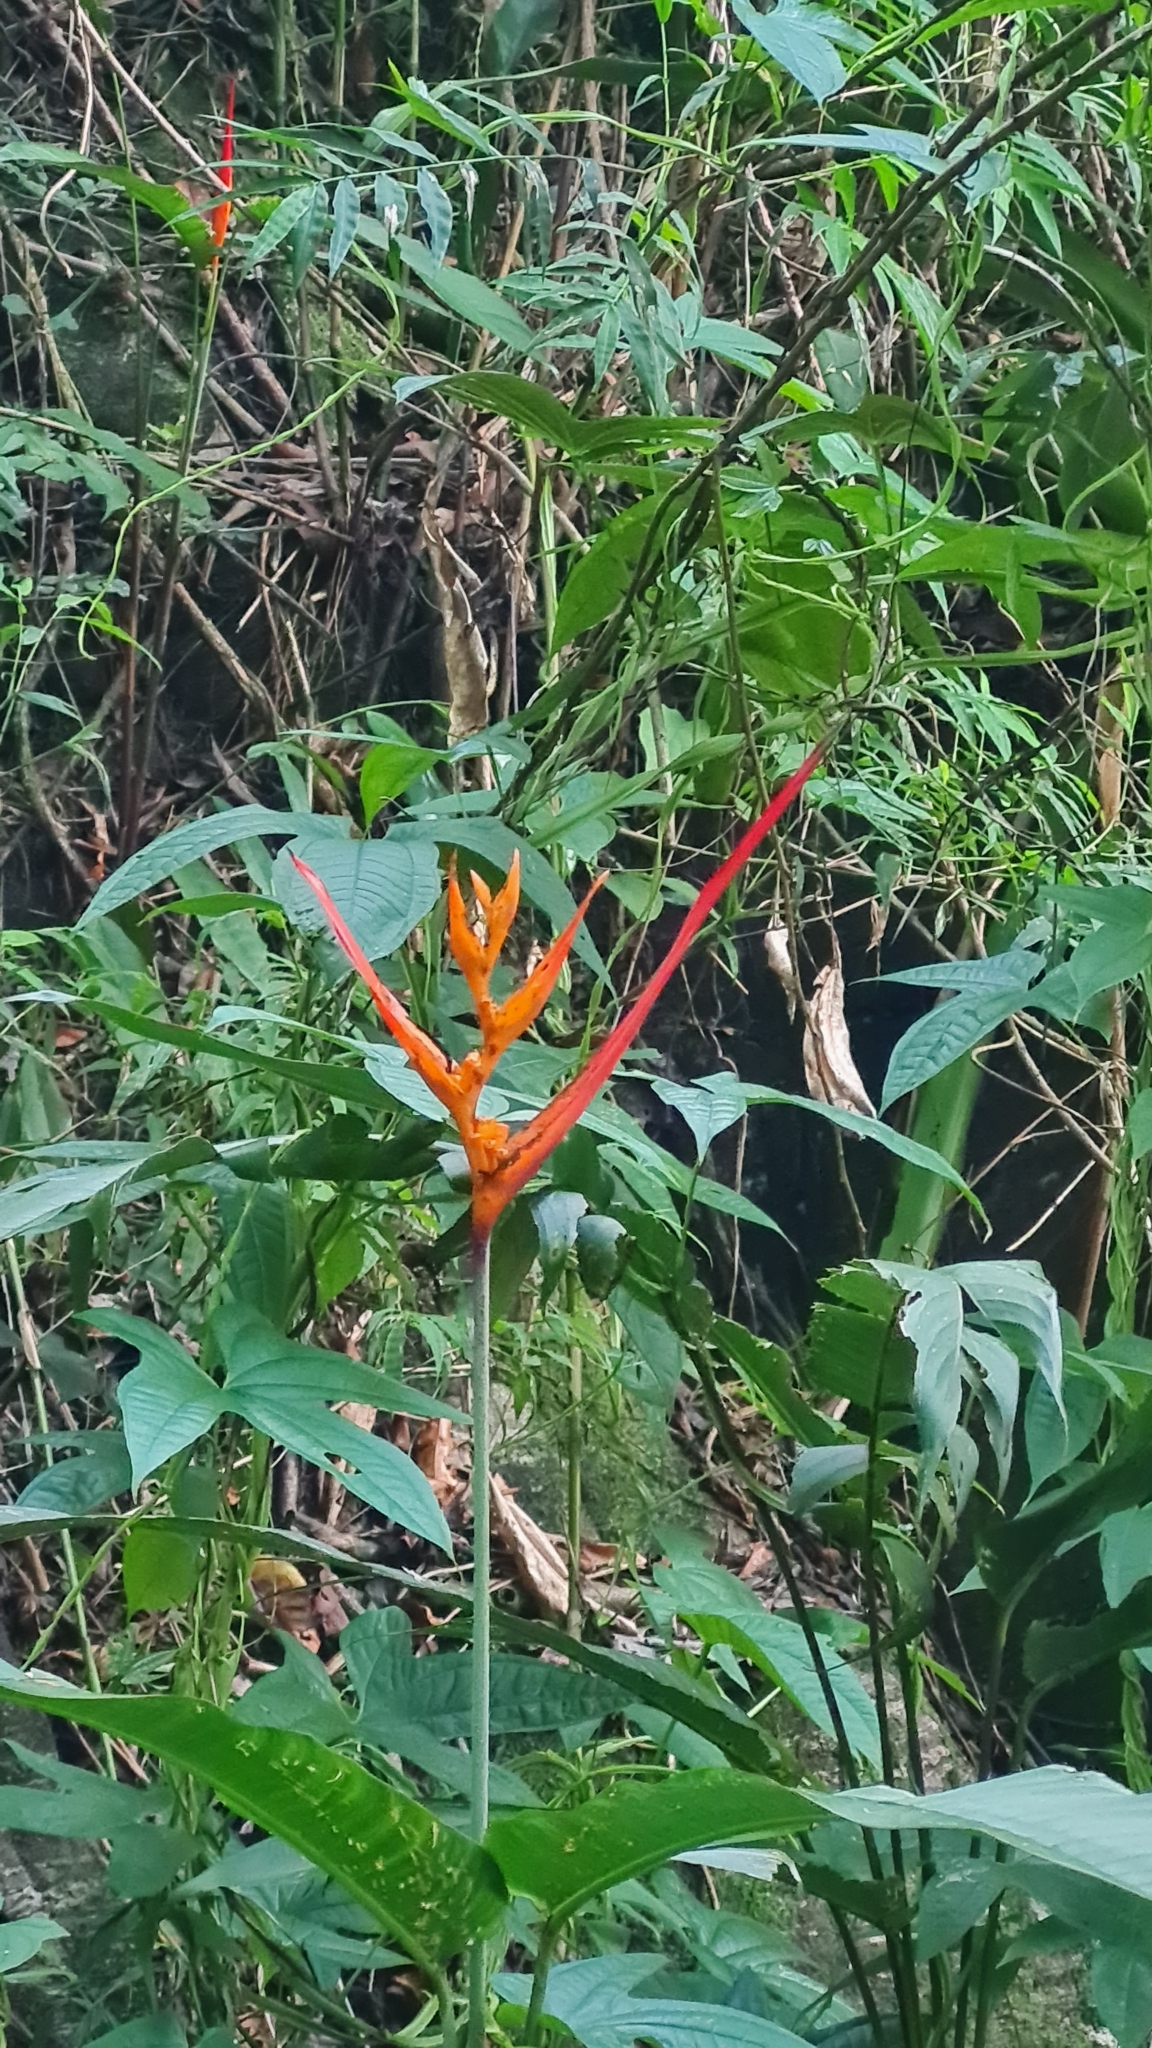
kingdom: Plantae
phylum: Tracheophyta
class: Liliopsida
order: Zingiberales
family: Heliconiaceae
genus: Heliconia
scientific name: Heliconia psittacorum
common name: Parrot's-flower
